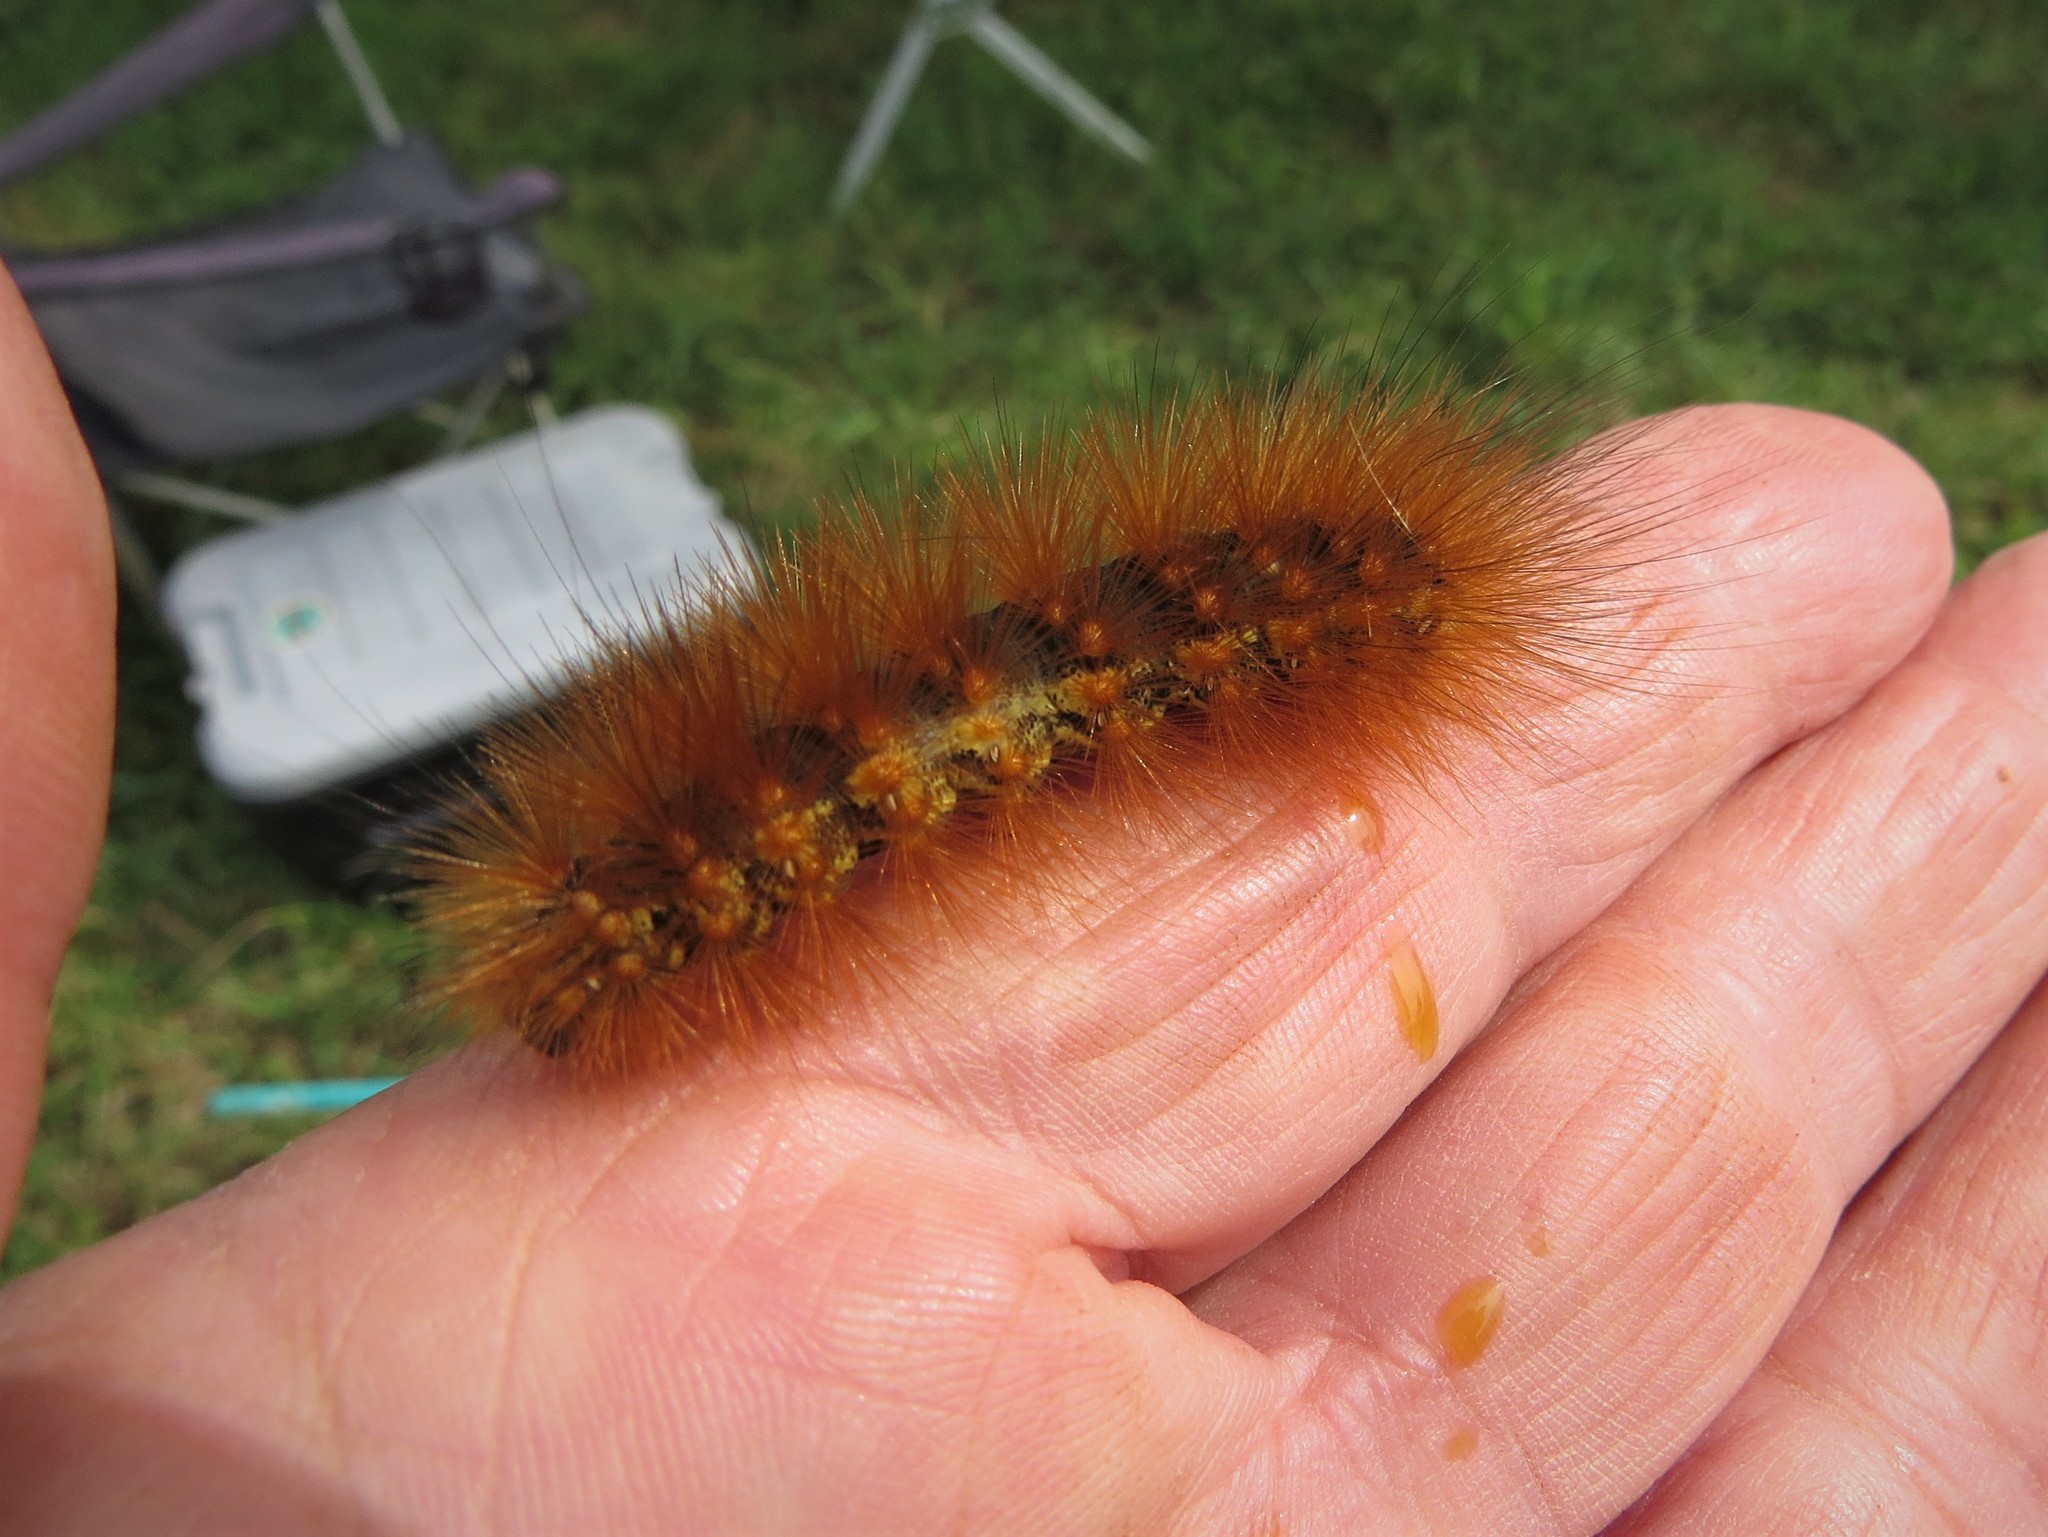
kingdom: Animalia
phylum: Arthropoda
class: Insecta
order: Lepidoptera
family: Erebidae
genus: Estigmene
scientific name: Estigmene acrea
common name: Salt marsh moth
